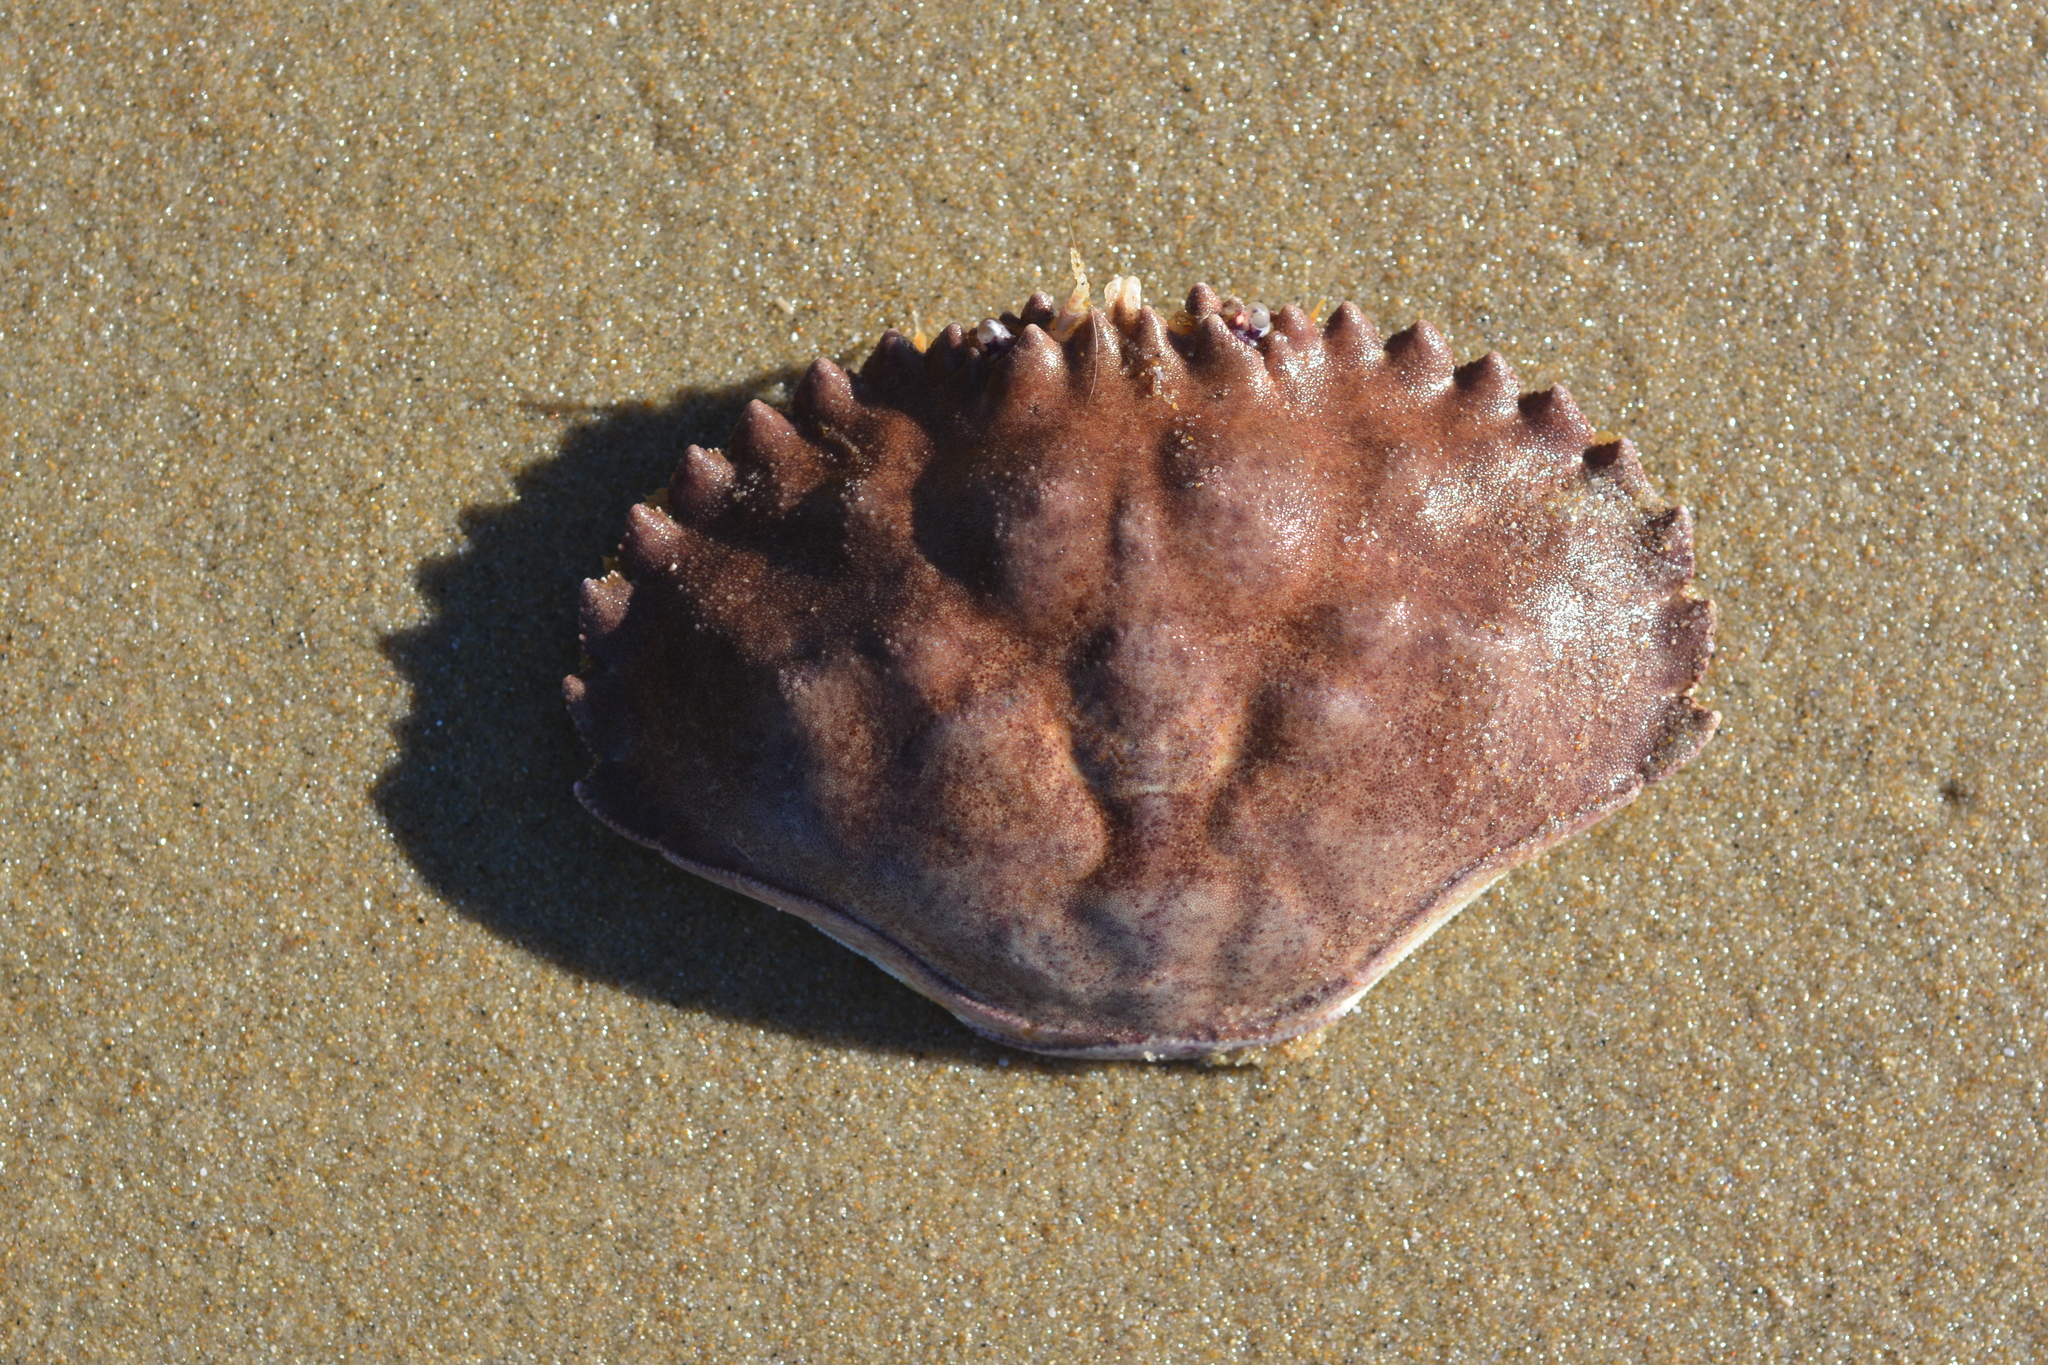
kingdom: Animalia
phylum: Arthropoda
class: Malacostraca
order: Decapoda
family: Cancridae
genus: Metacarcinus
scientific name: Metacarcinus anthonyi
